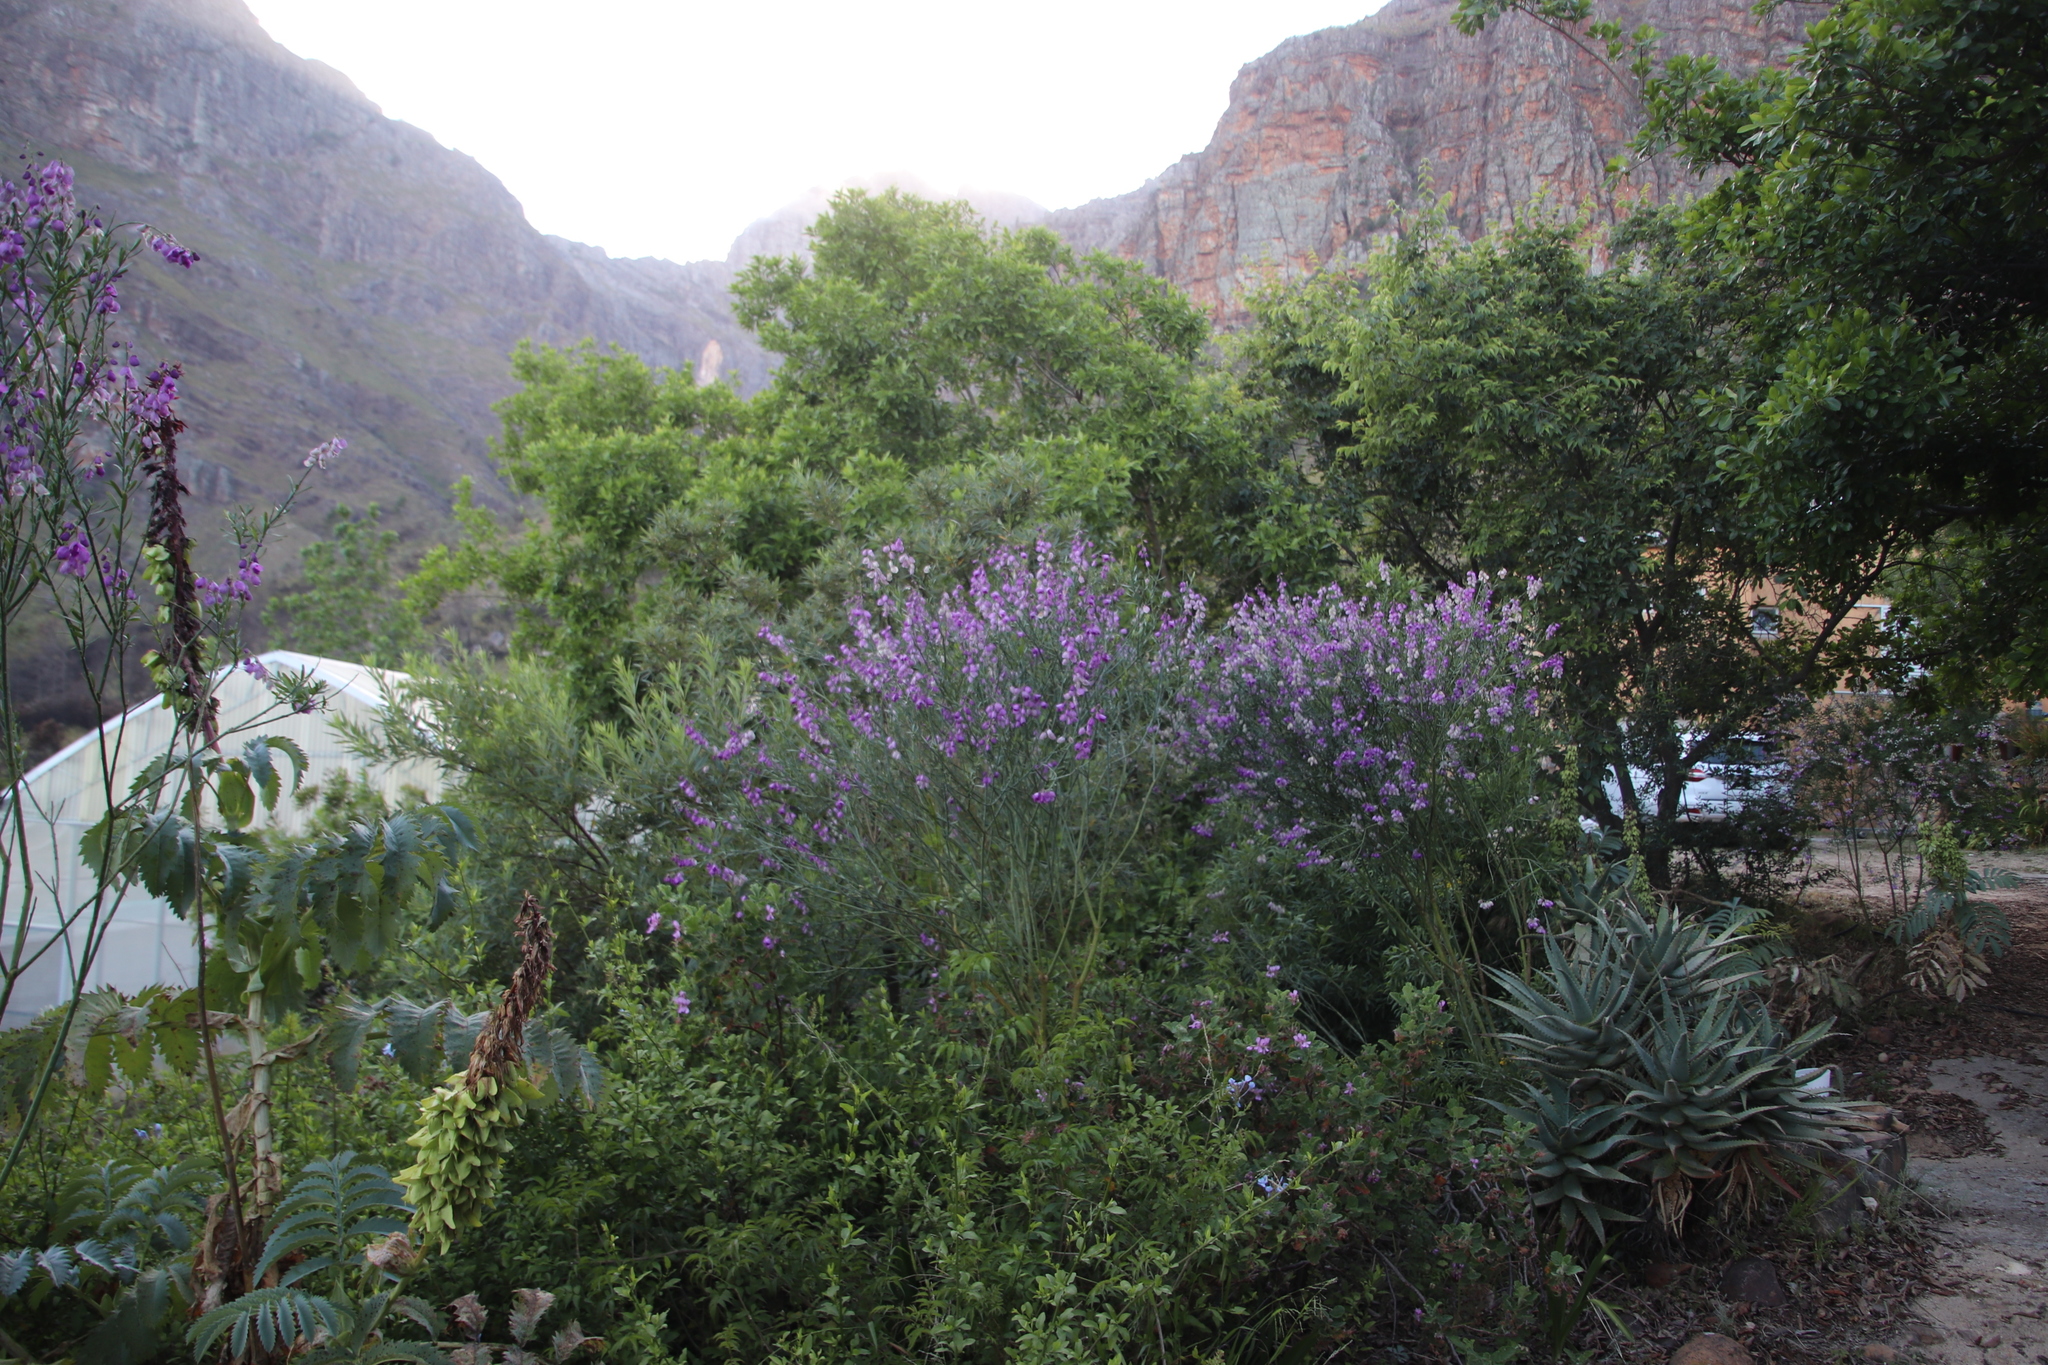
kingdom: Plantae
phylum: Tracheophyta
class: Magnoliopsida
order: Fabales
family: Polygalaceae
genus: Polygala
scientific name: Polygala virgata
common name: Milkwort
